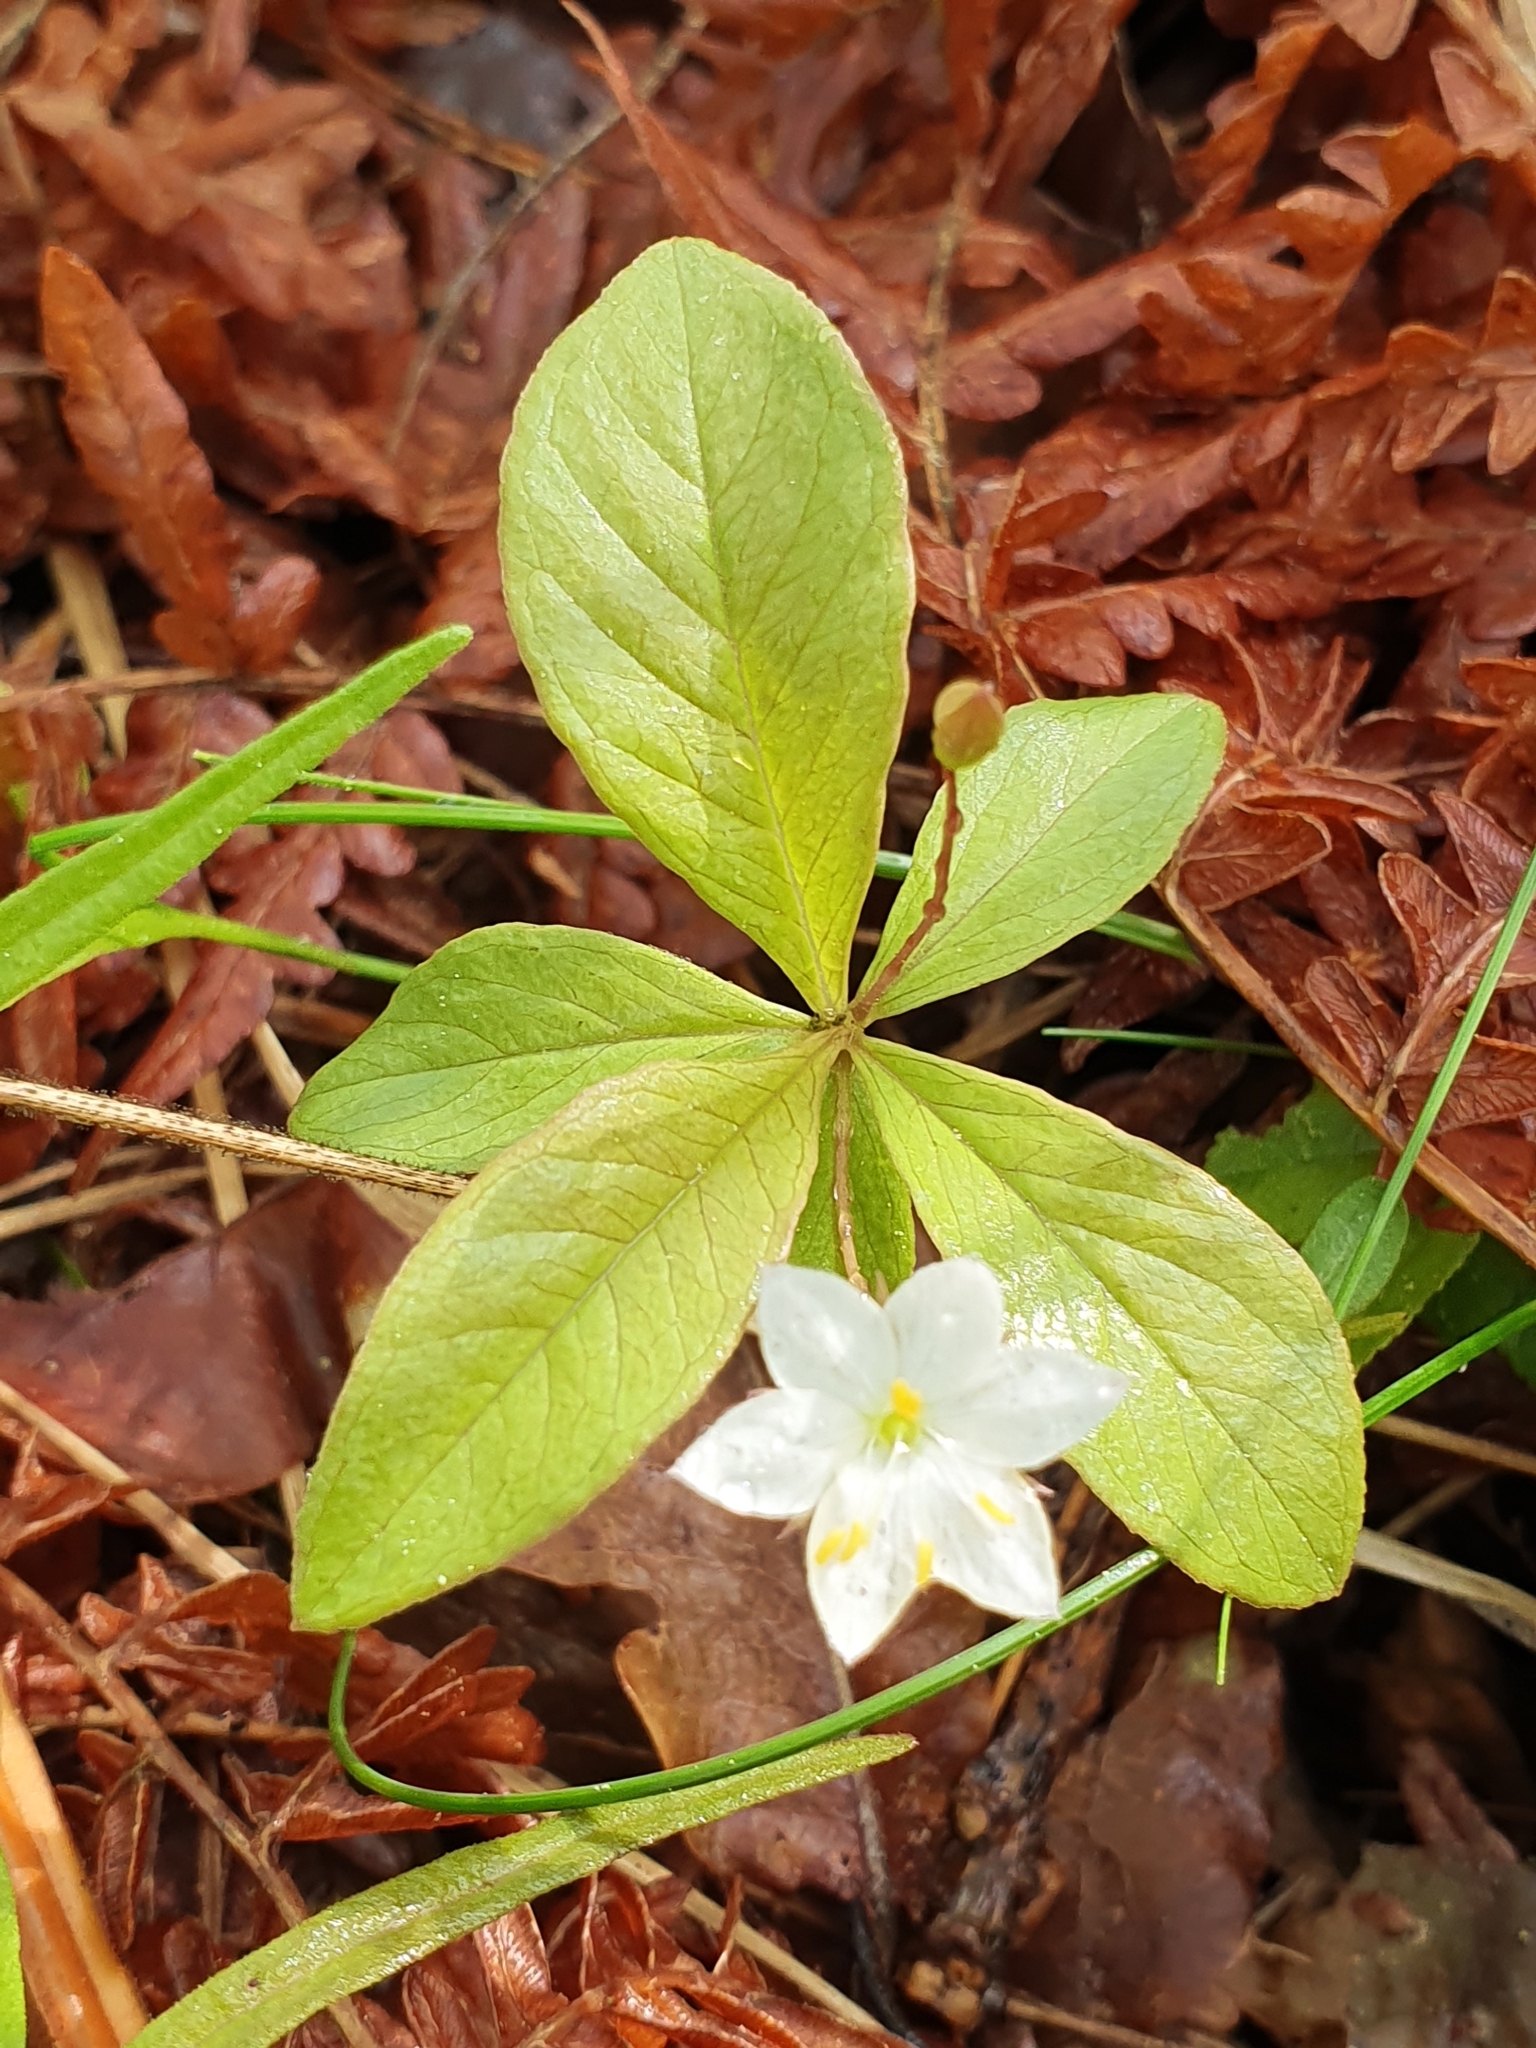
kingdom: Plantae
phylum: Tracheophyta
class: Magnoliopsida
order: Ericales
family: Primulaceae
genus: Lysimachia
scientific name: Lysimachia europaea
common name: Arctic starflower
